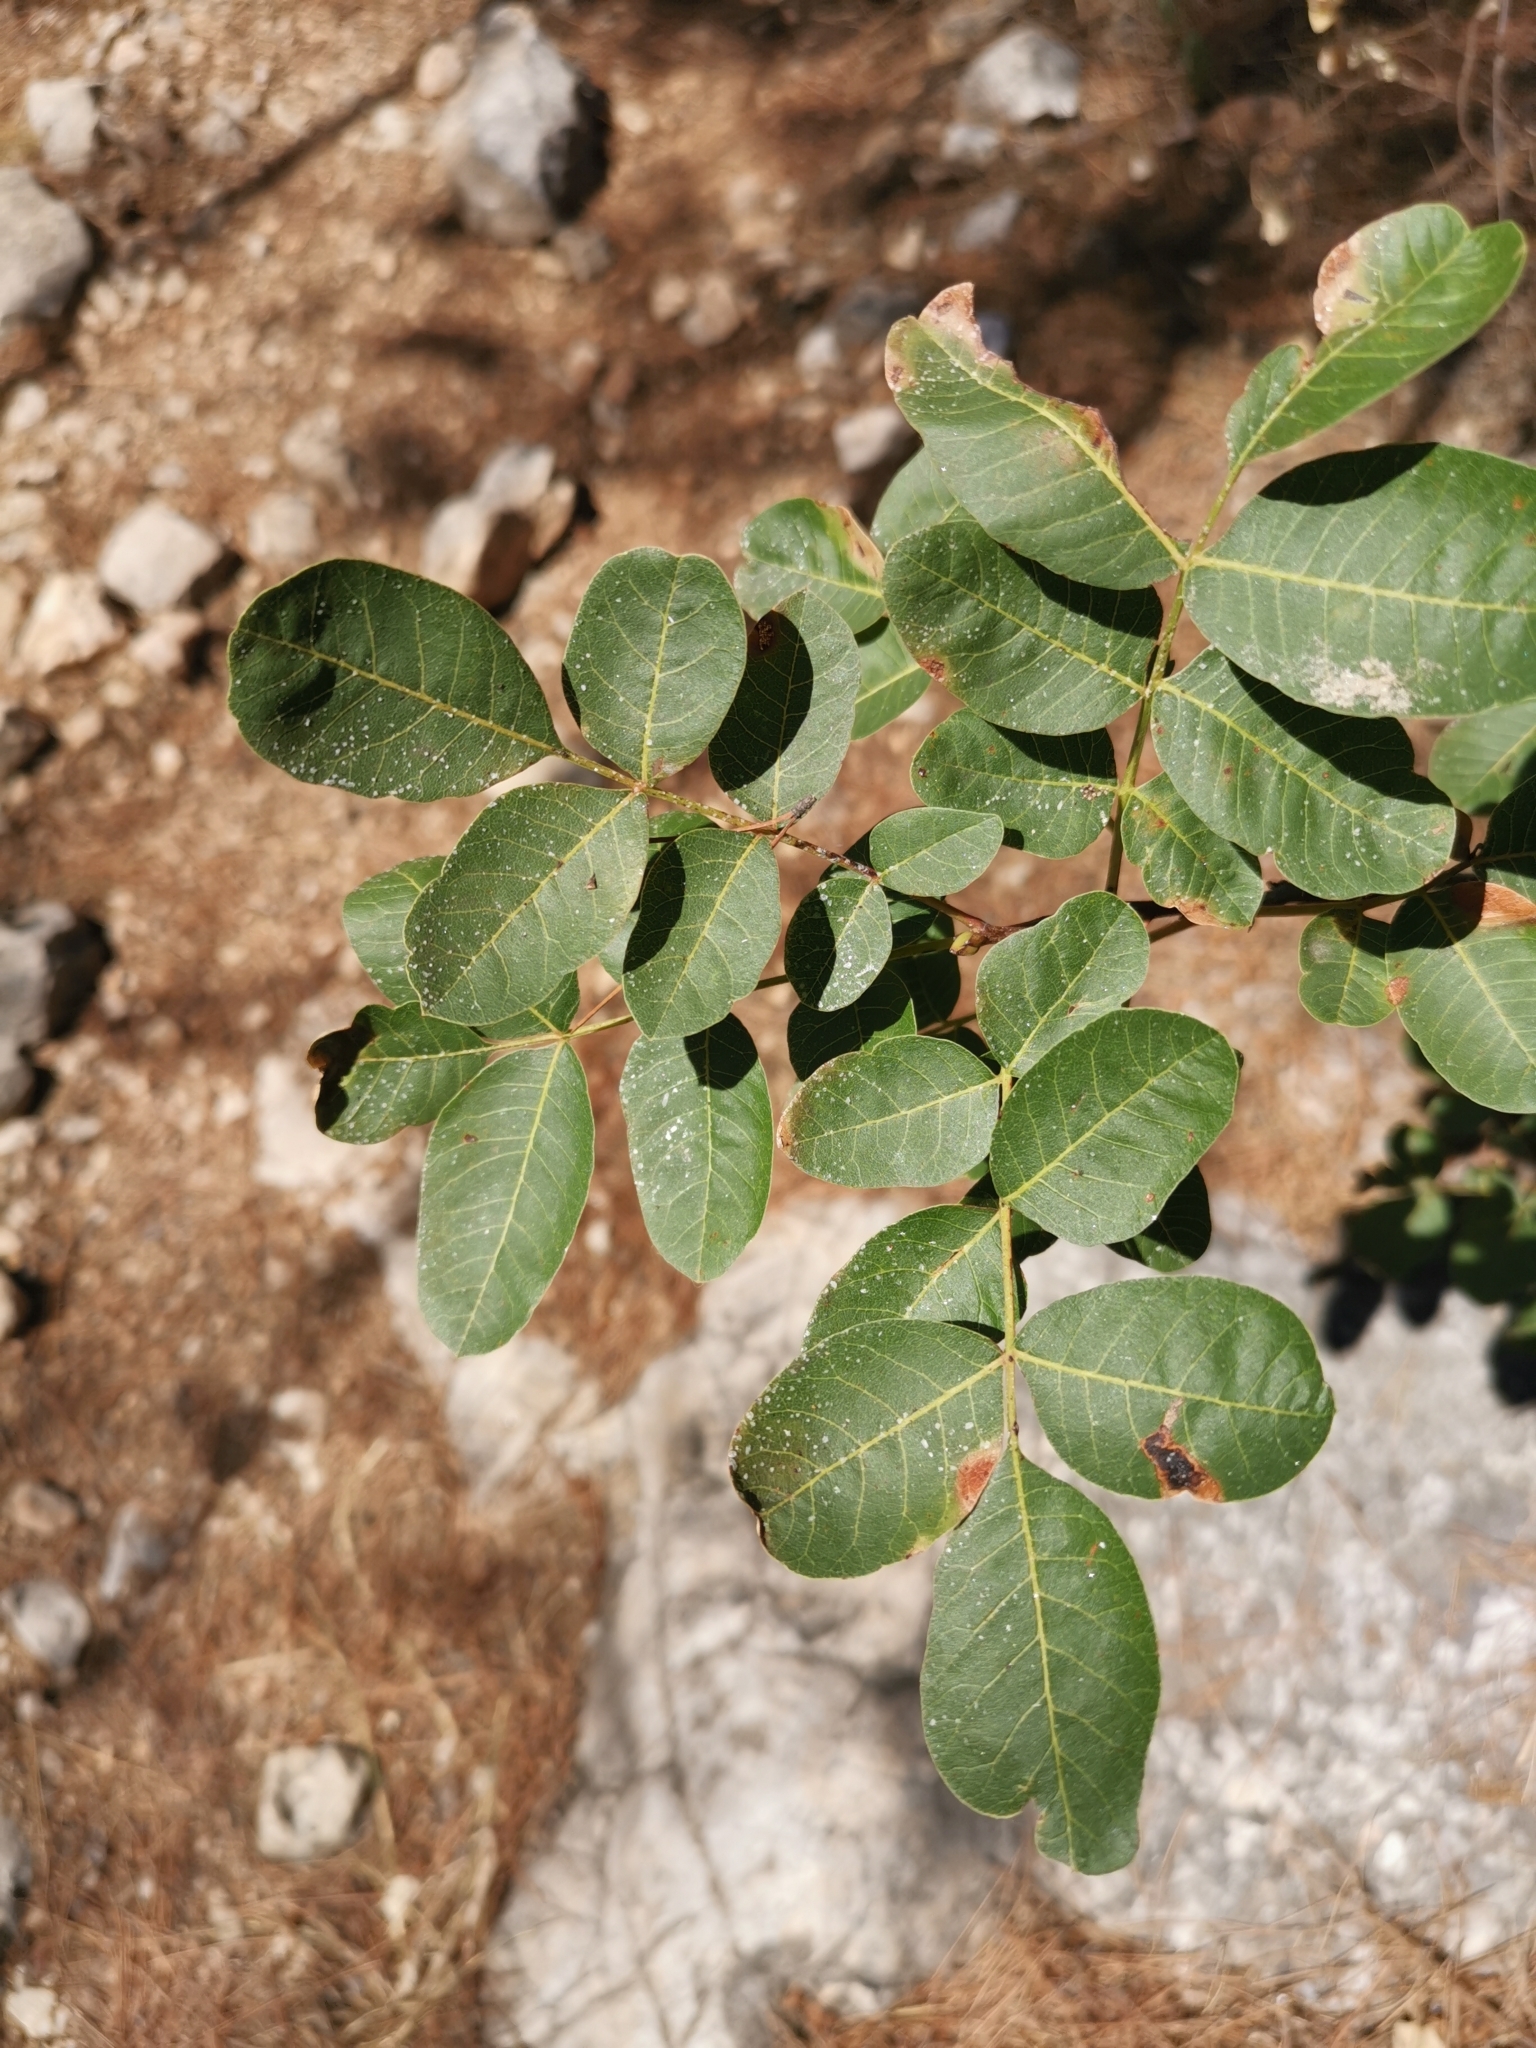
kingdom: Plantae
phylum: Tracheophyta
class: Magnoliopsida
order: Sapindales
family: Anacardiaceae
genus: Pistacia
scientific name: Pistacia terebinthus
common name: Terebinth
